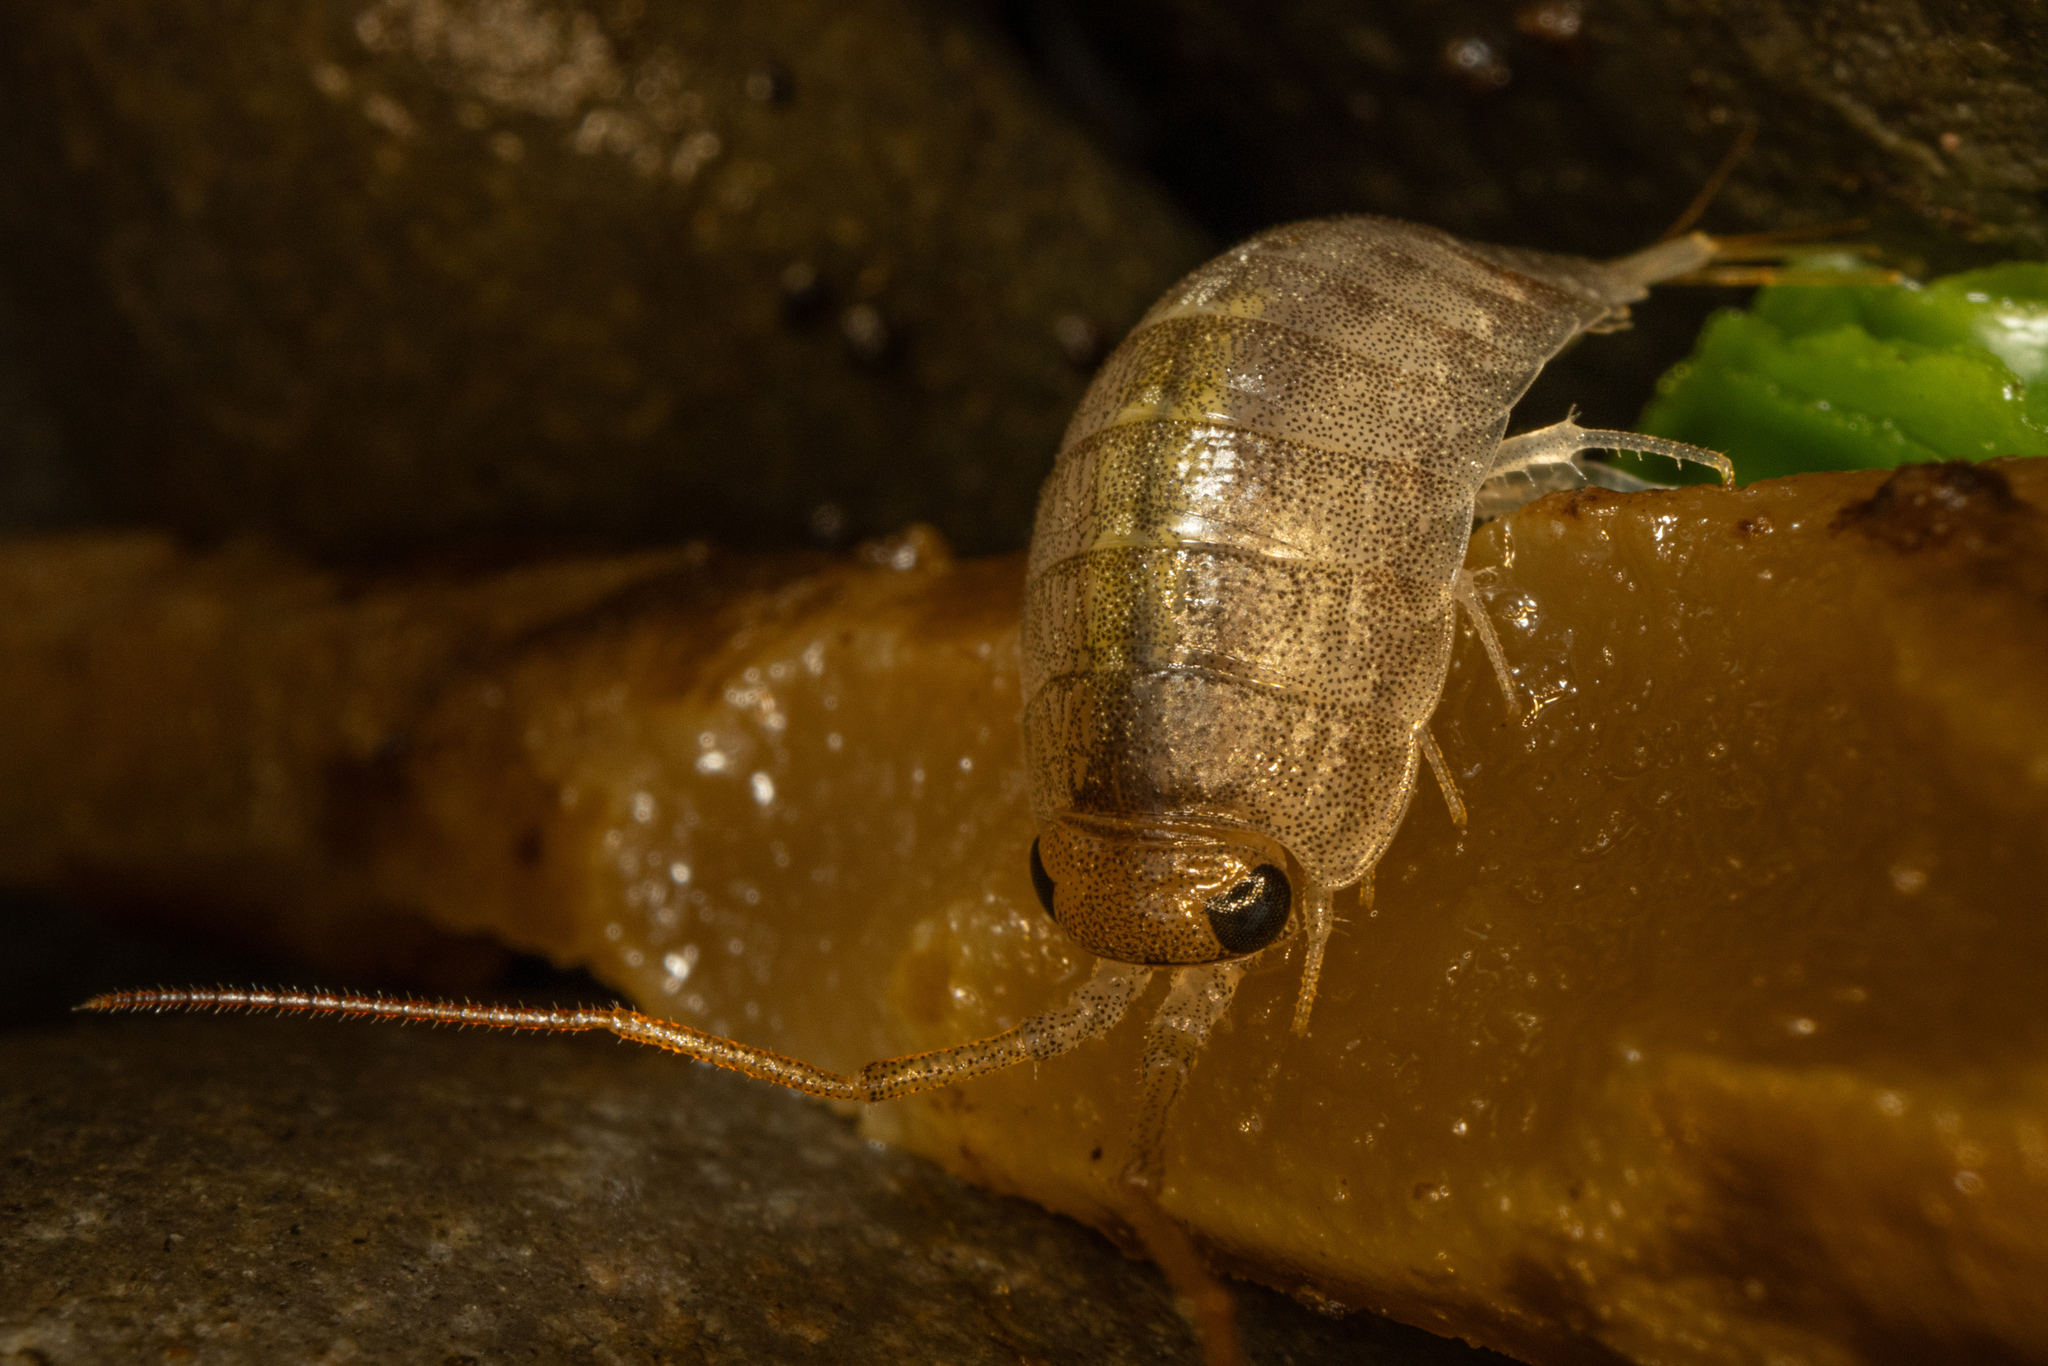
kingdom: Animalia
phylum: Arthropoda
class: Malacostraca
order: Isopoda
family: Ligiidae
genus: Ligia
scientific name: Ligia novizealandiae
